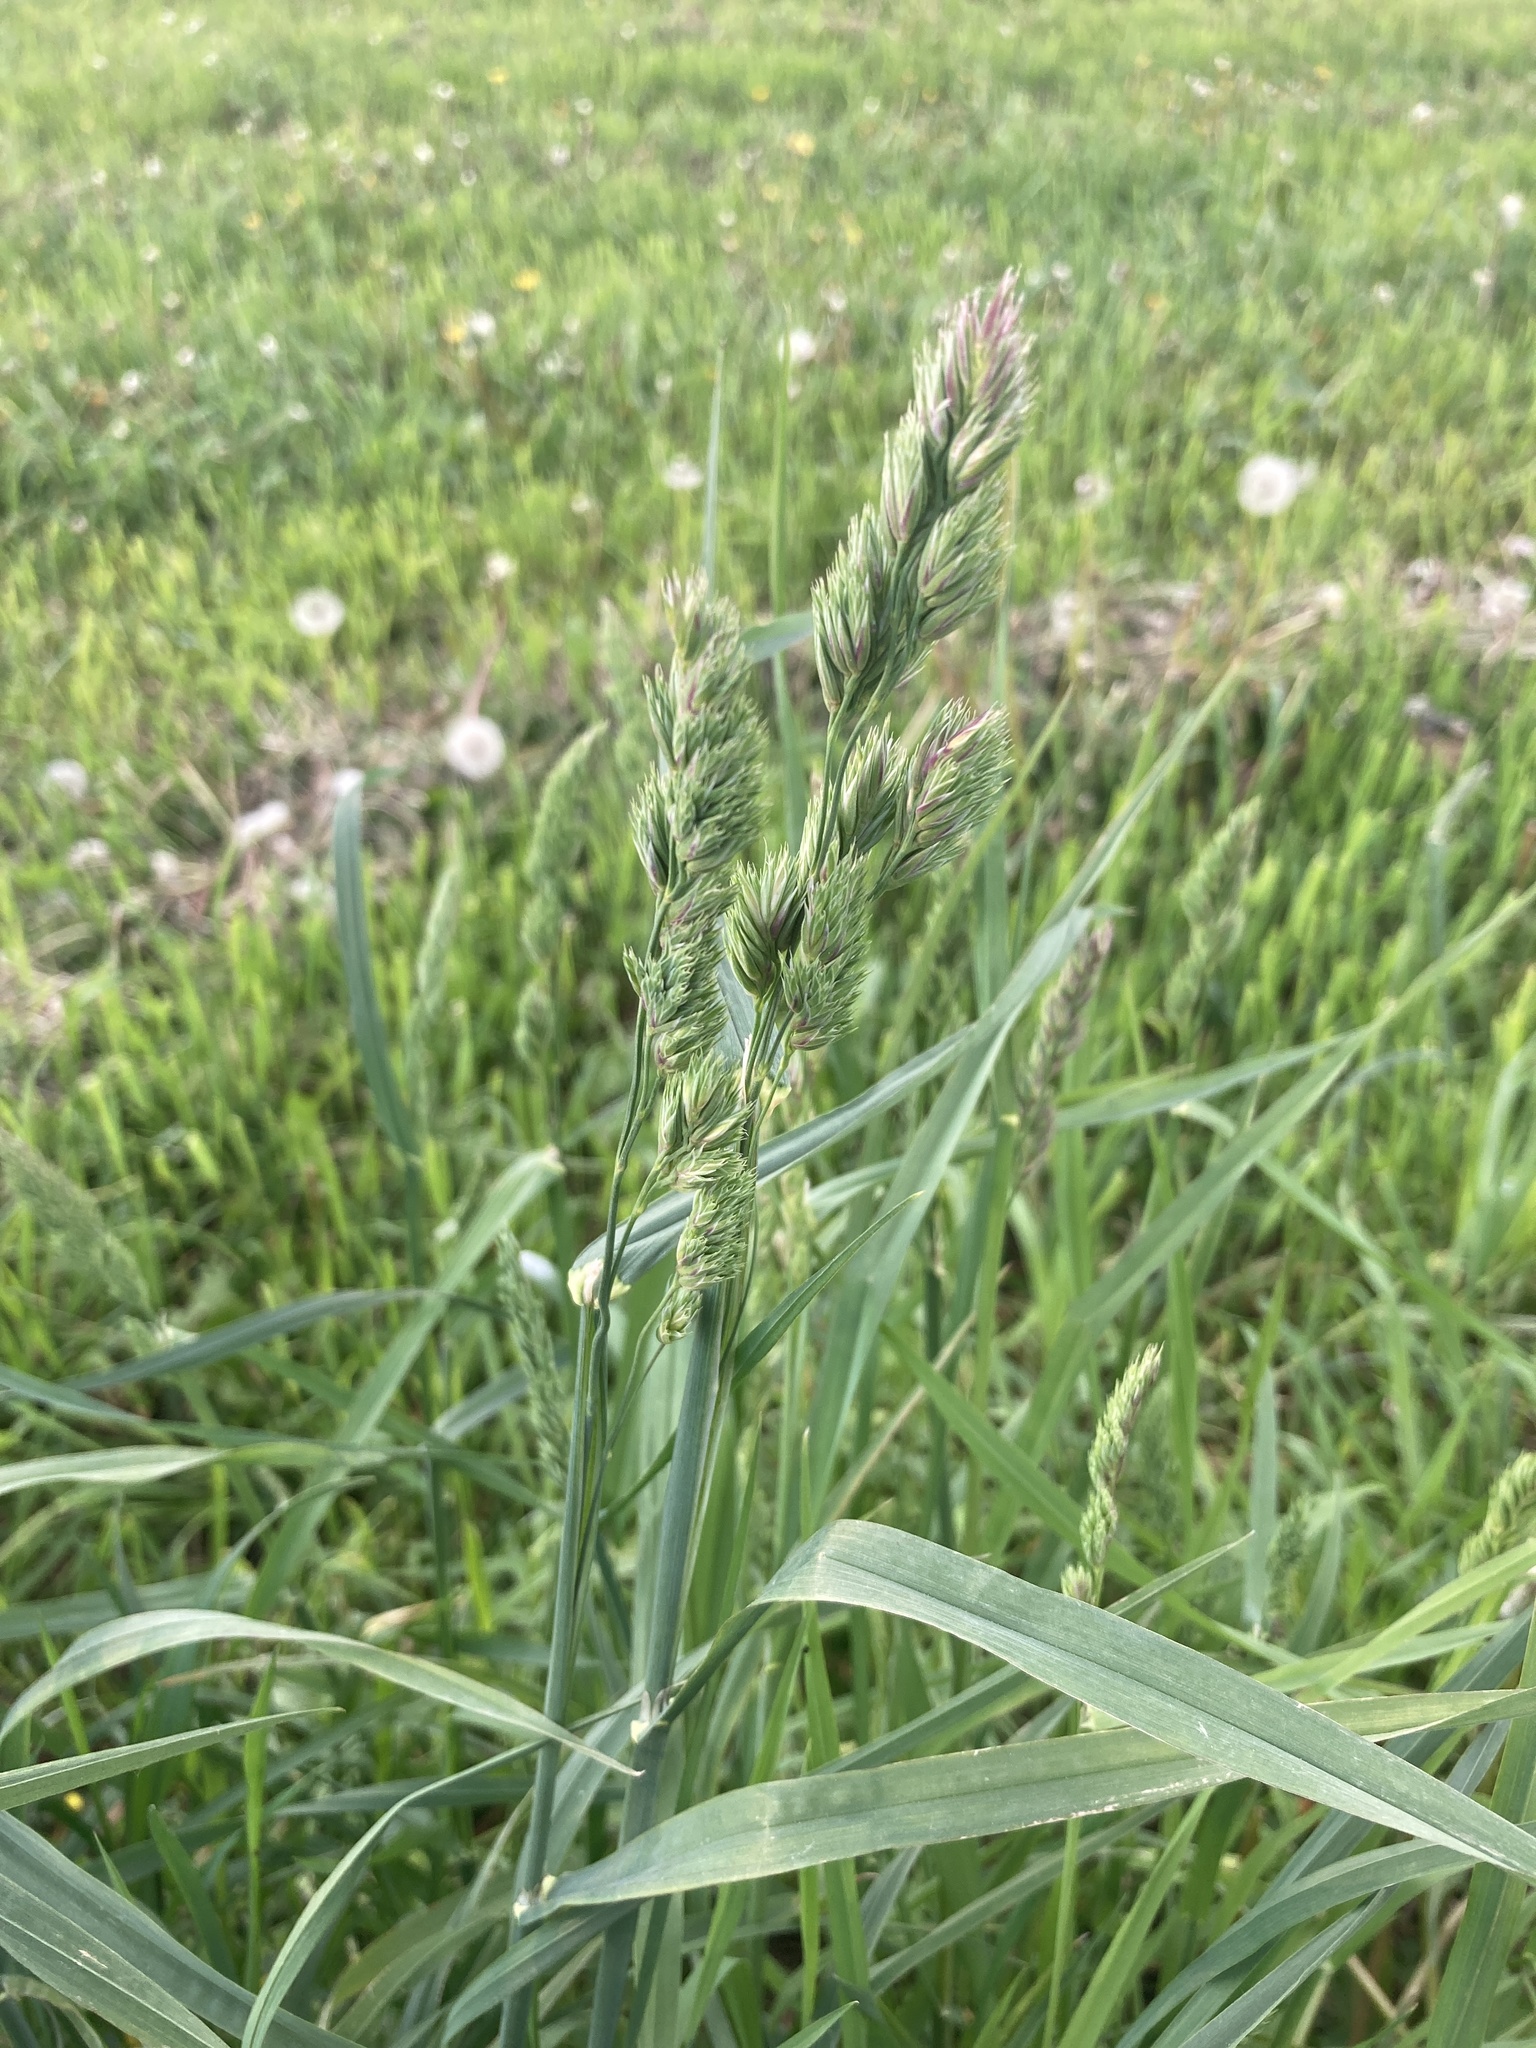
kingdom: Plantae
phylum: Tracheophyta
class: Liliopsida
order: Poales
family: Poaceae
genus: Dactylis
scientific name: Dactylis glomerata
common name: Orchardgrass
